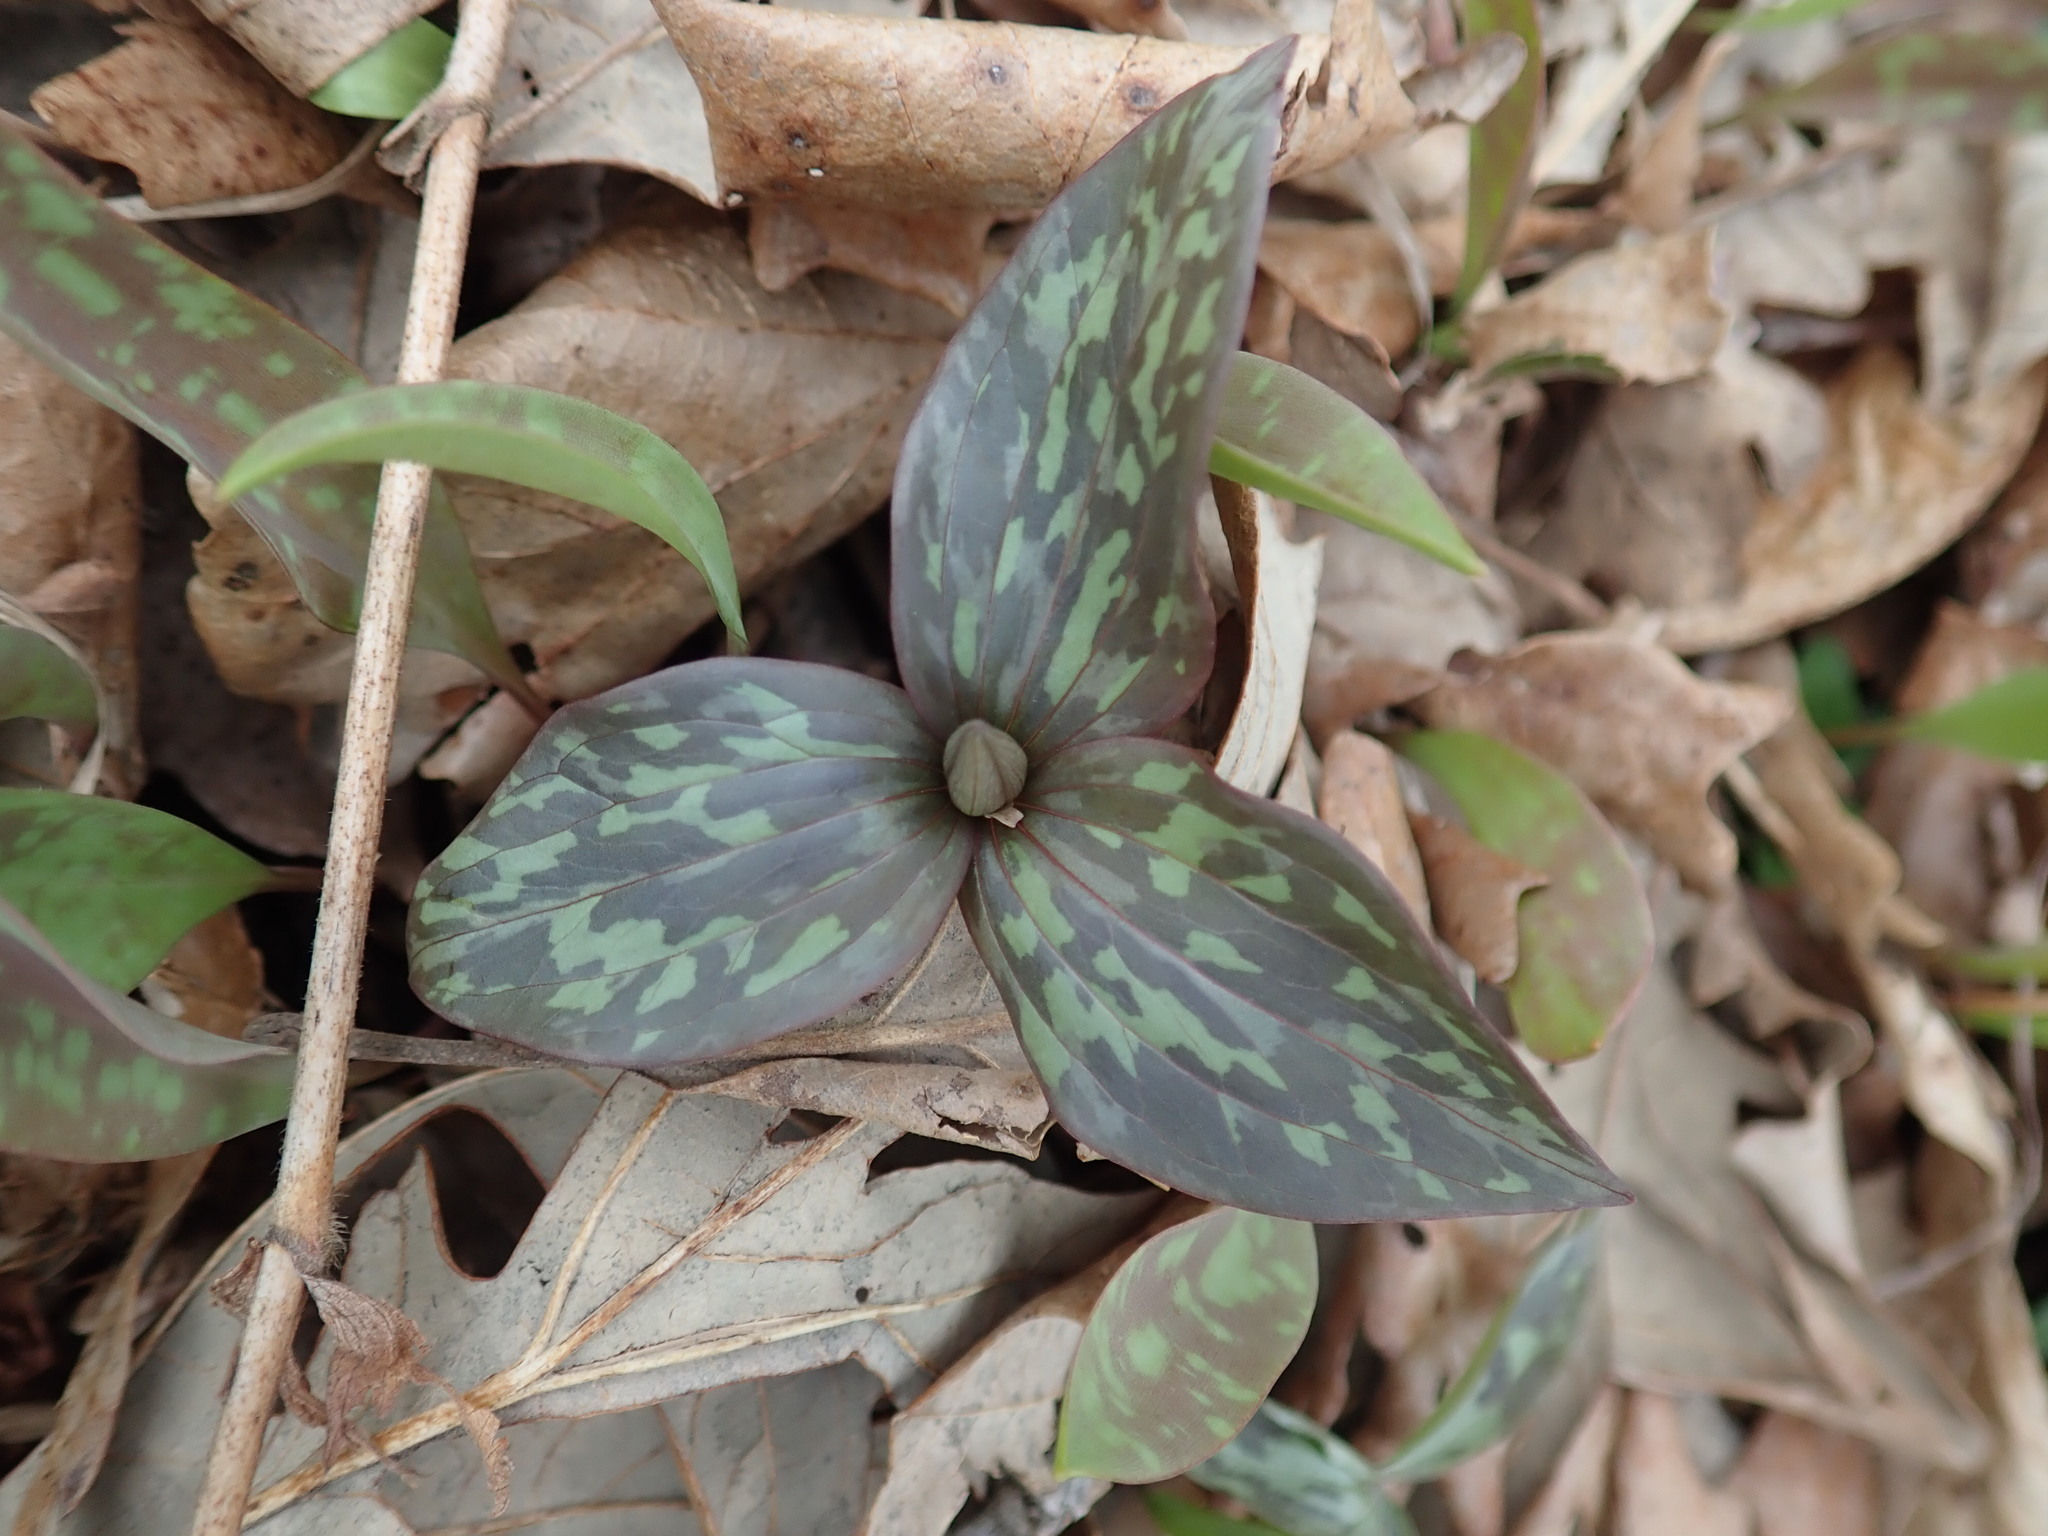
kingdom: Plantae
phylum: Tracheophyta
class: Liliopsida
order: Liliales
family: Melanthiaceae
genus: Trillium
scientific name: Trillium recurvatum
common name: Bloody butcher
